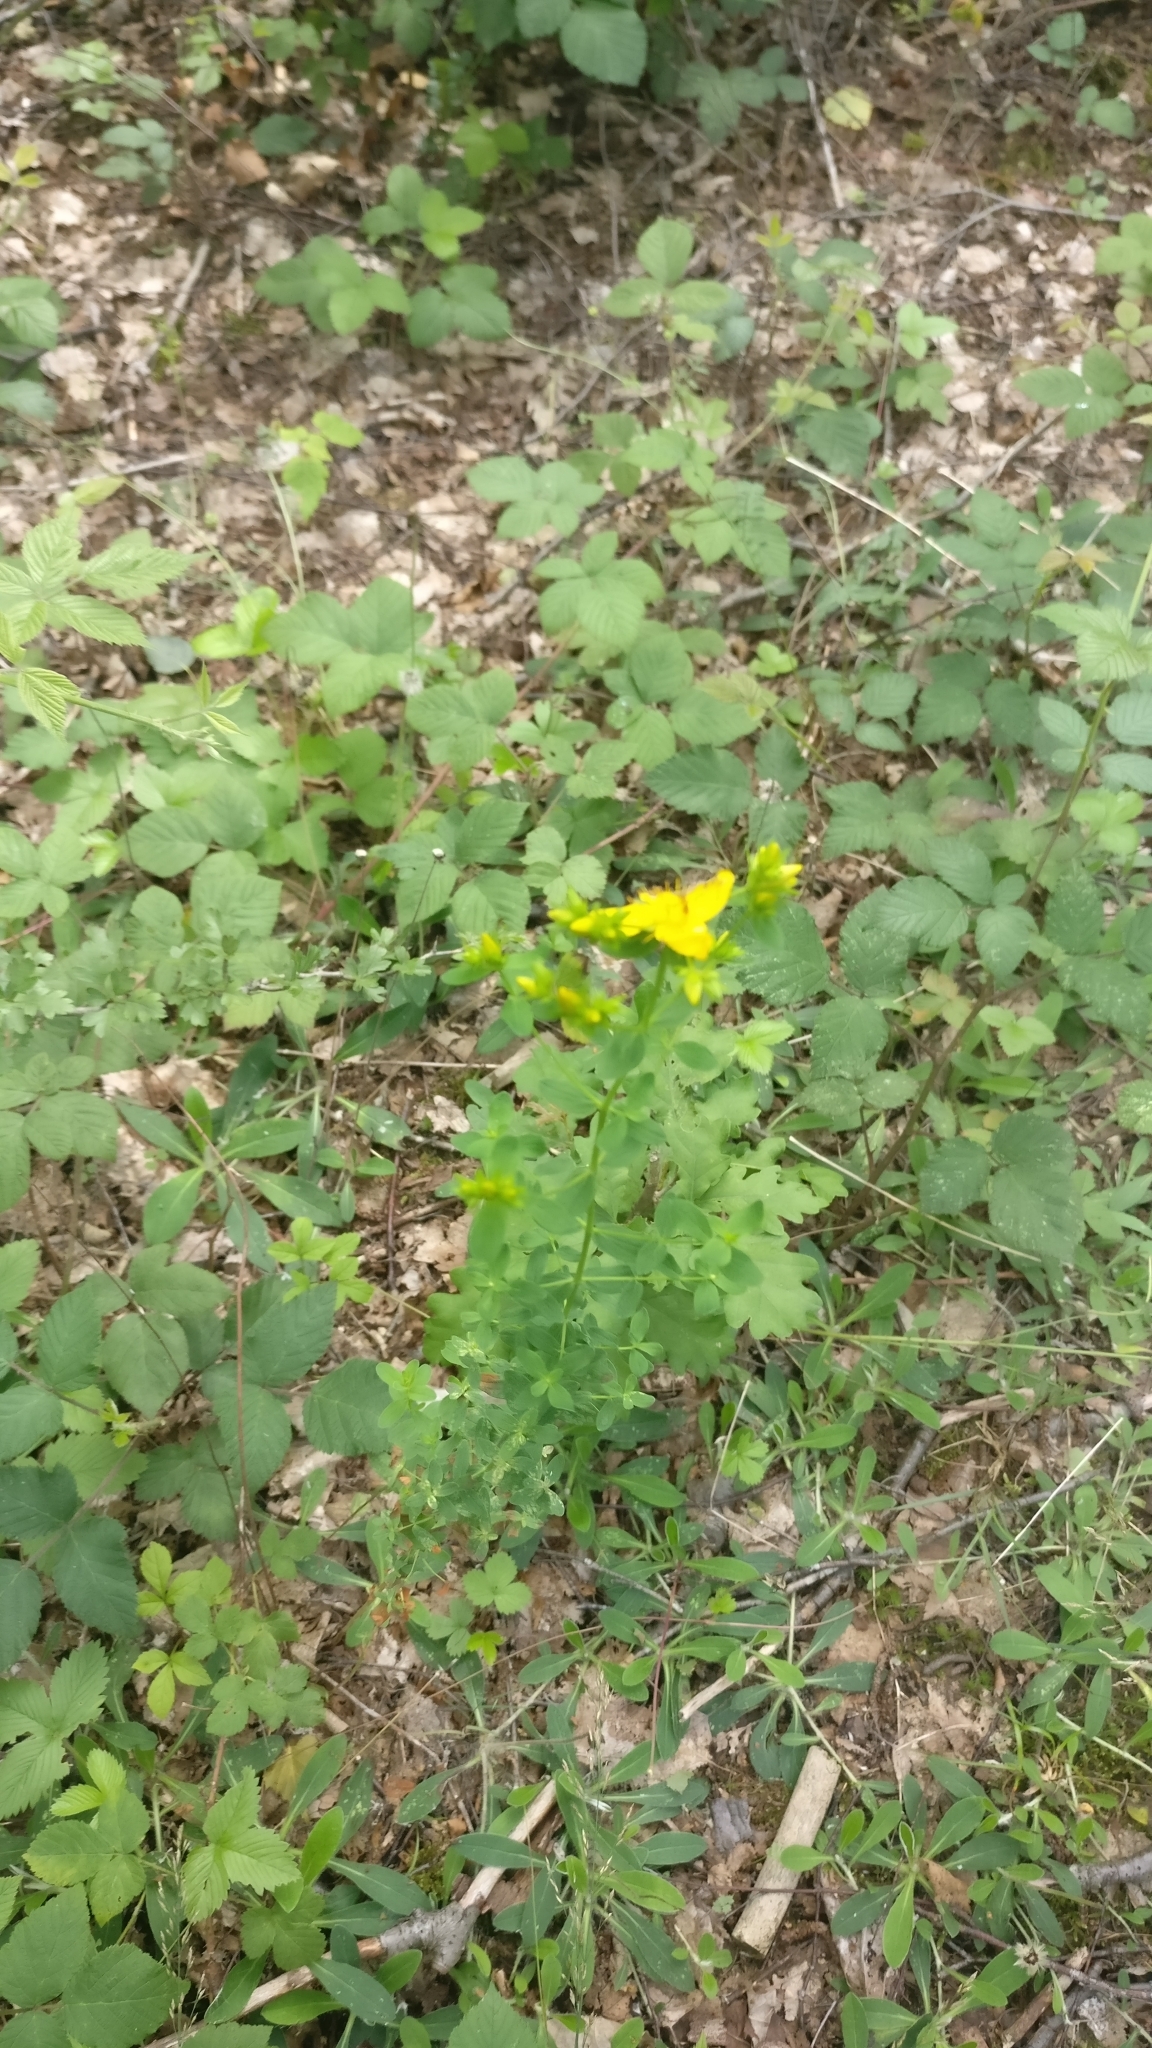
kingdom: Plantae
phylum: Tracheophyta
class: Magnoliopsida
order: Malpighiales
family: Hypericaceae
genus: Hypericum
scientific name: Hypericum perforatum
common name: Common st. johnswort
